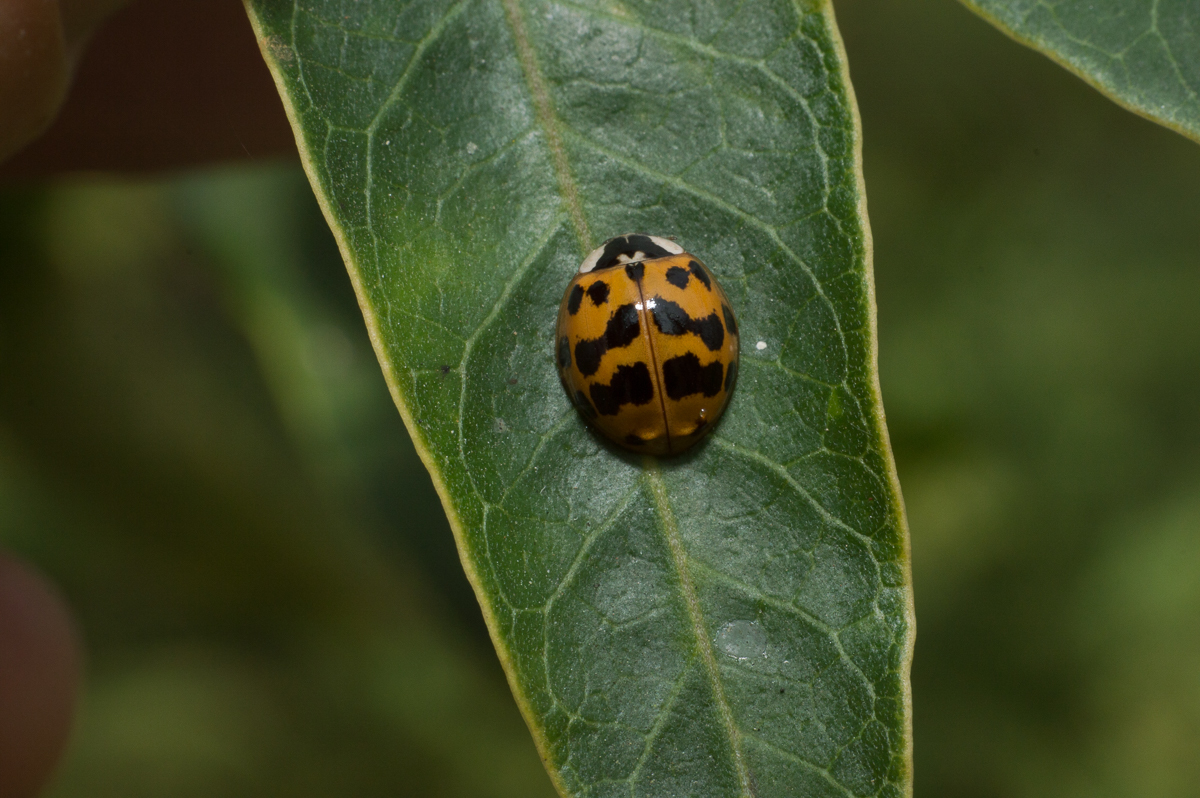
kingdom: Animalia
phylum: Arthropoda
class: Insecta
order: Coleoptera
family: Coccinellidae
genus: Harmonia
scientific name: Harmonia axyridis
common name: Harlequin ladybird
